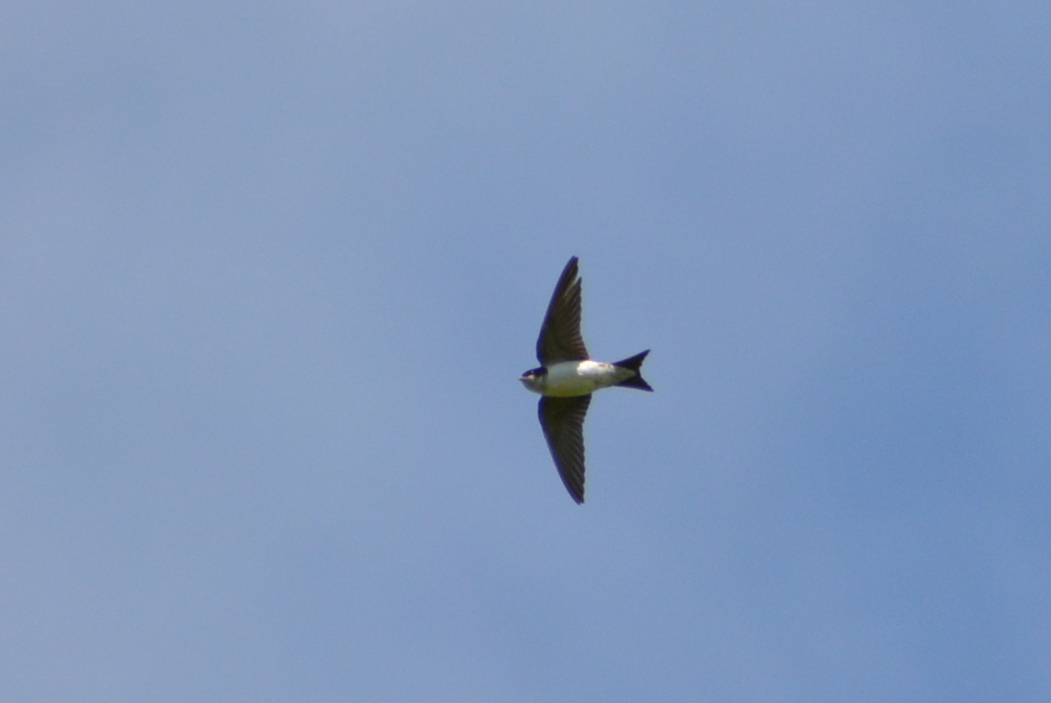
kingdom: Animalia
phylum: Chordata
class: Aves
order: Passeriformes
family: Hirundinidae
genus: Delichon
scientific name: Delichon urbicum
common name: Common house martin
